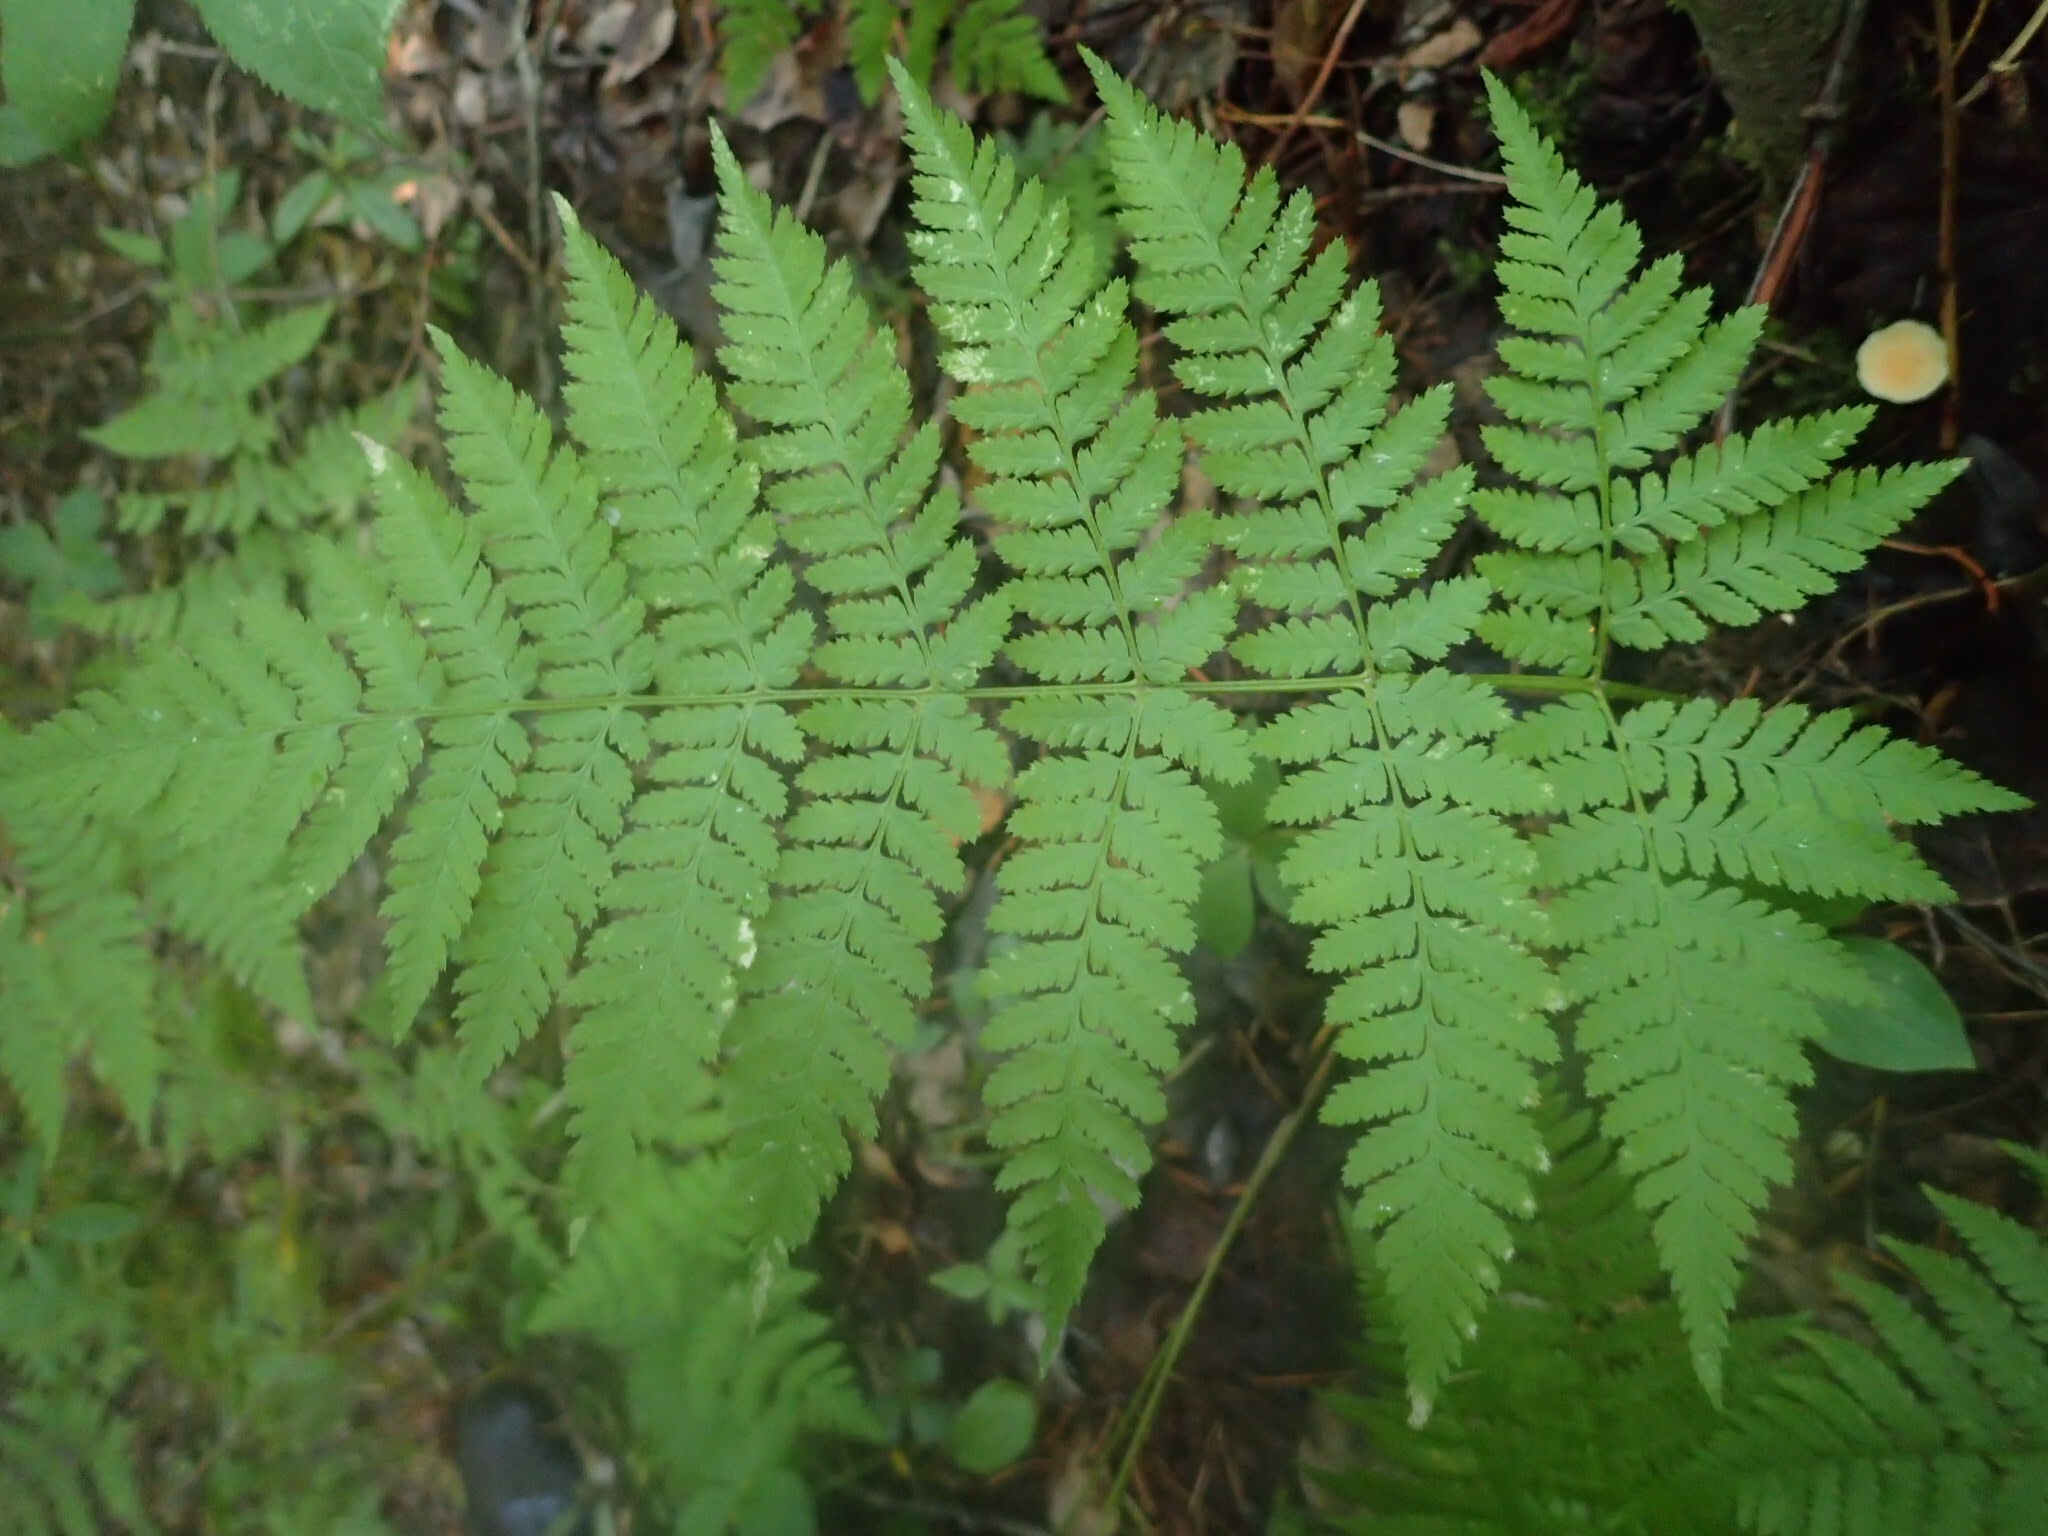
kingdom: Plantae
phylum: Tracheophyta
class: Polypodiopsida
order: Polypodiales
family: Dryopteridaceae
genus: Dryopteris
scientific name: Dryopteris expansa
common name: Northern buckler fern
